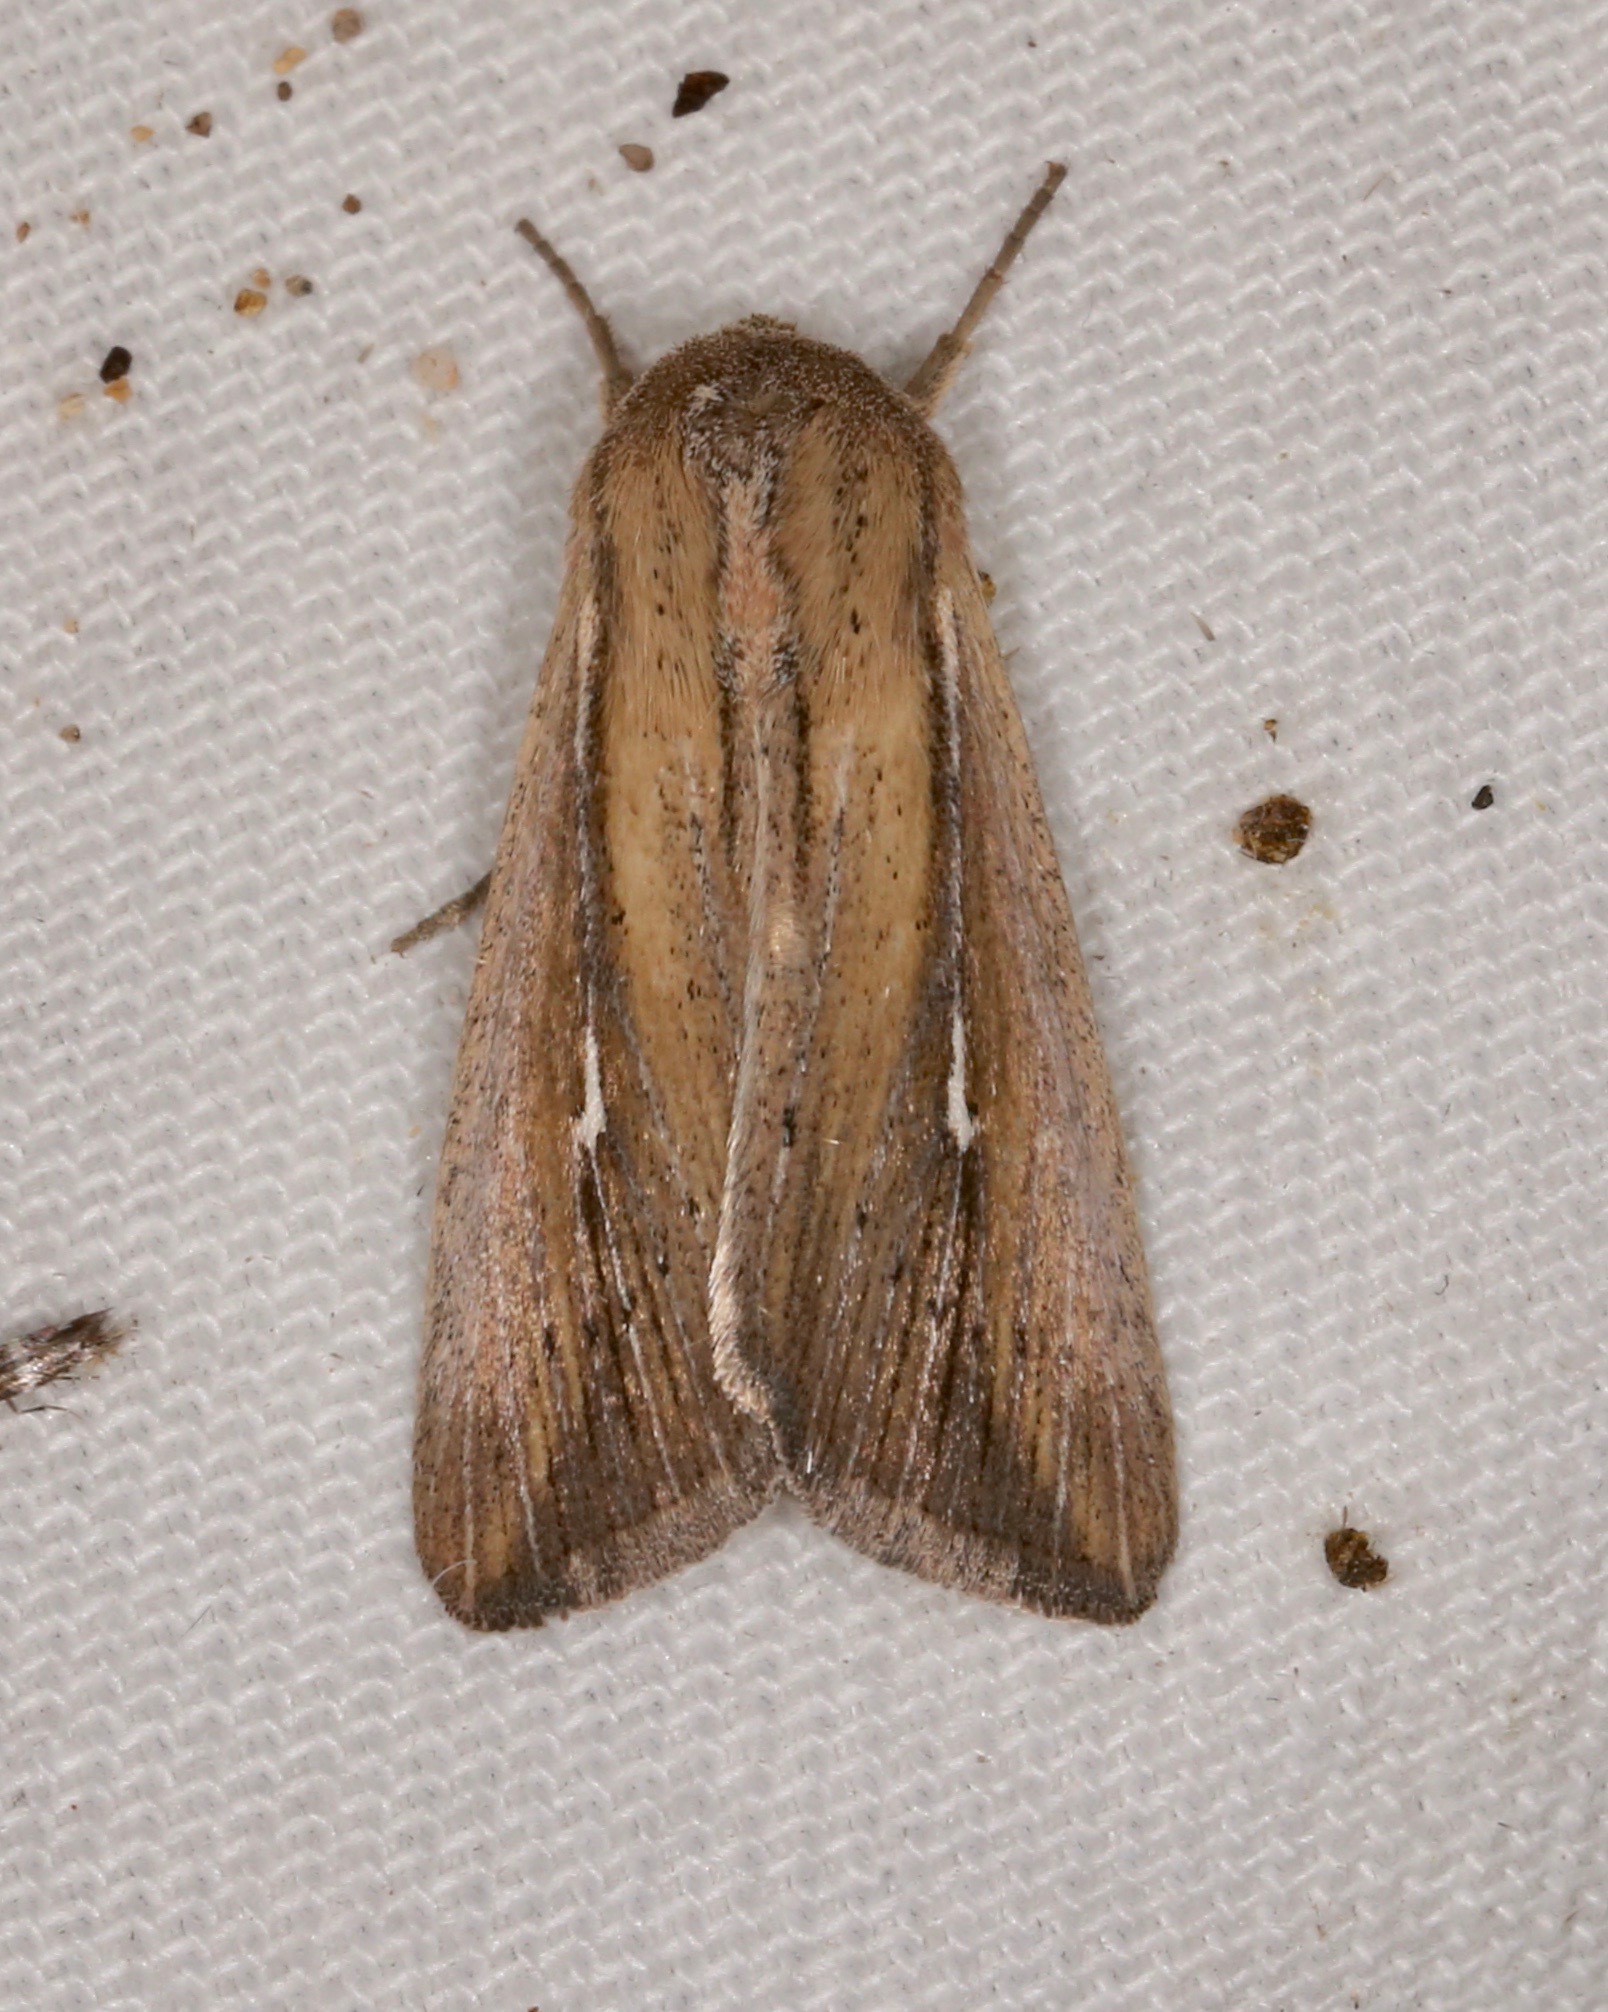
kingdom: Animalia
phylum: Arthropoda
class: Insecta
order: Lepidoptera
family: Noctuidae
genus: Leucania
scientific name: Leucania imperfecta
